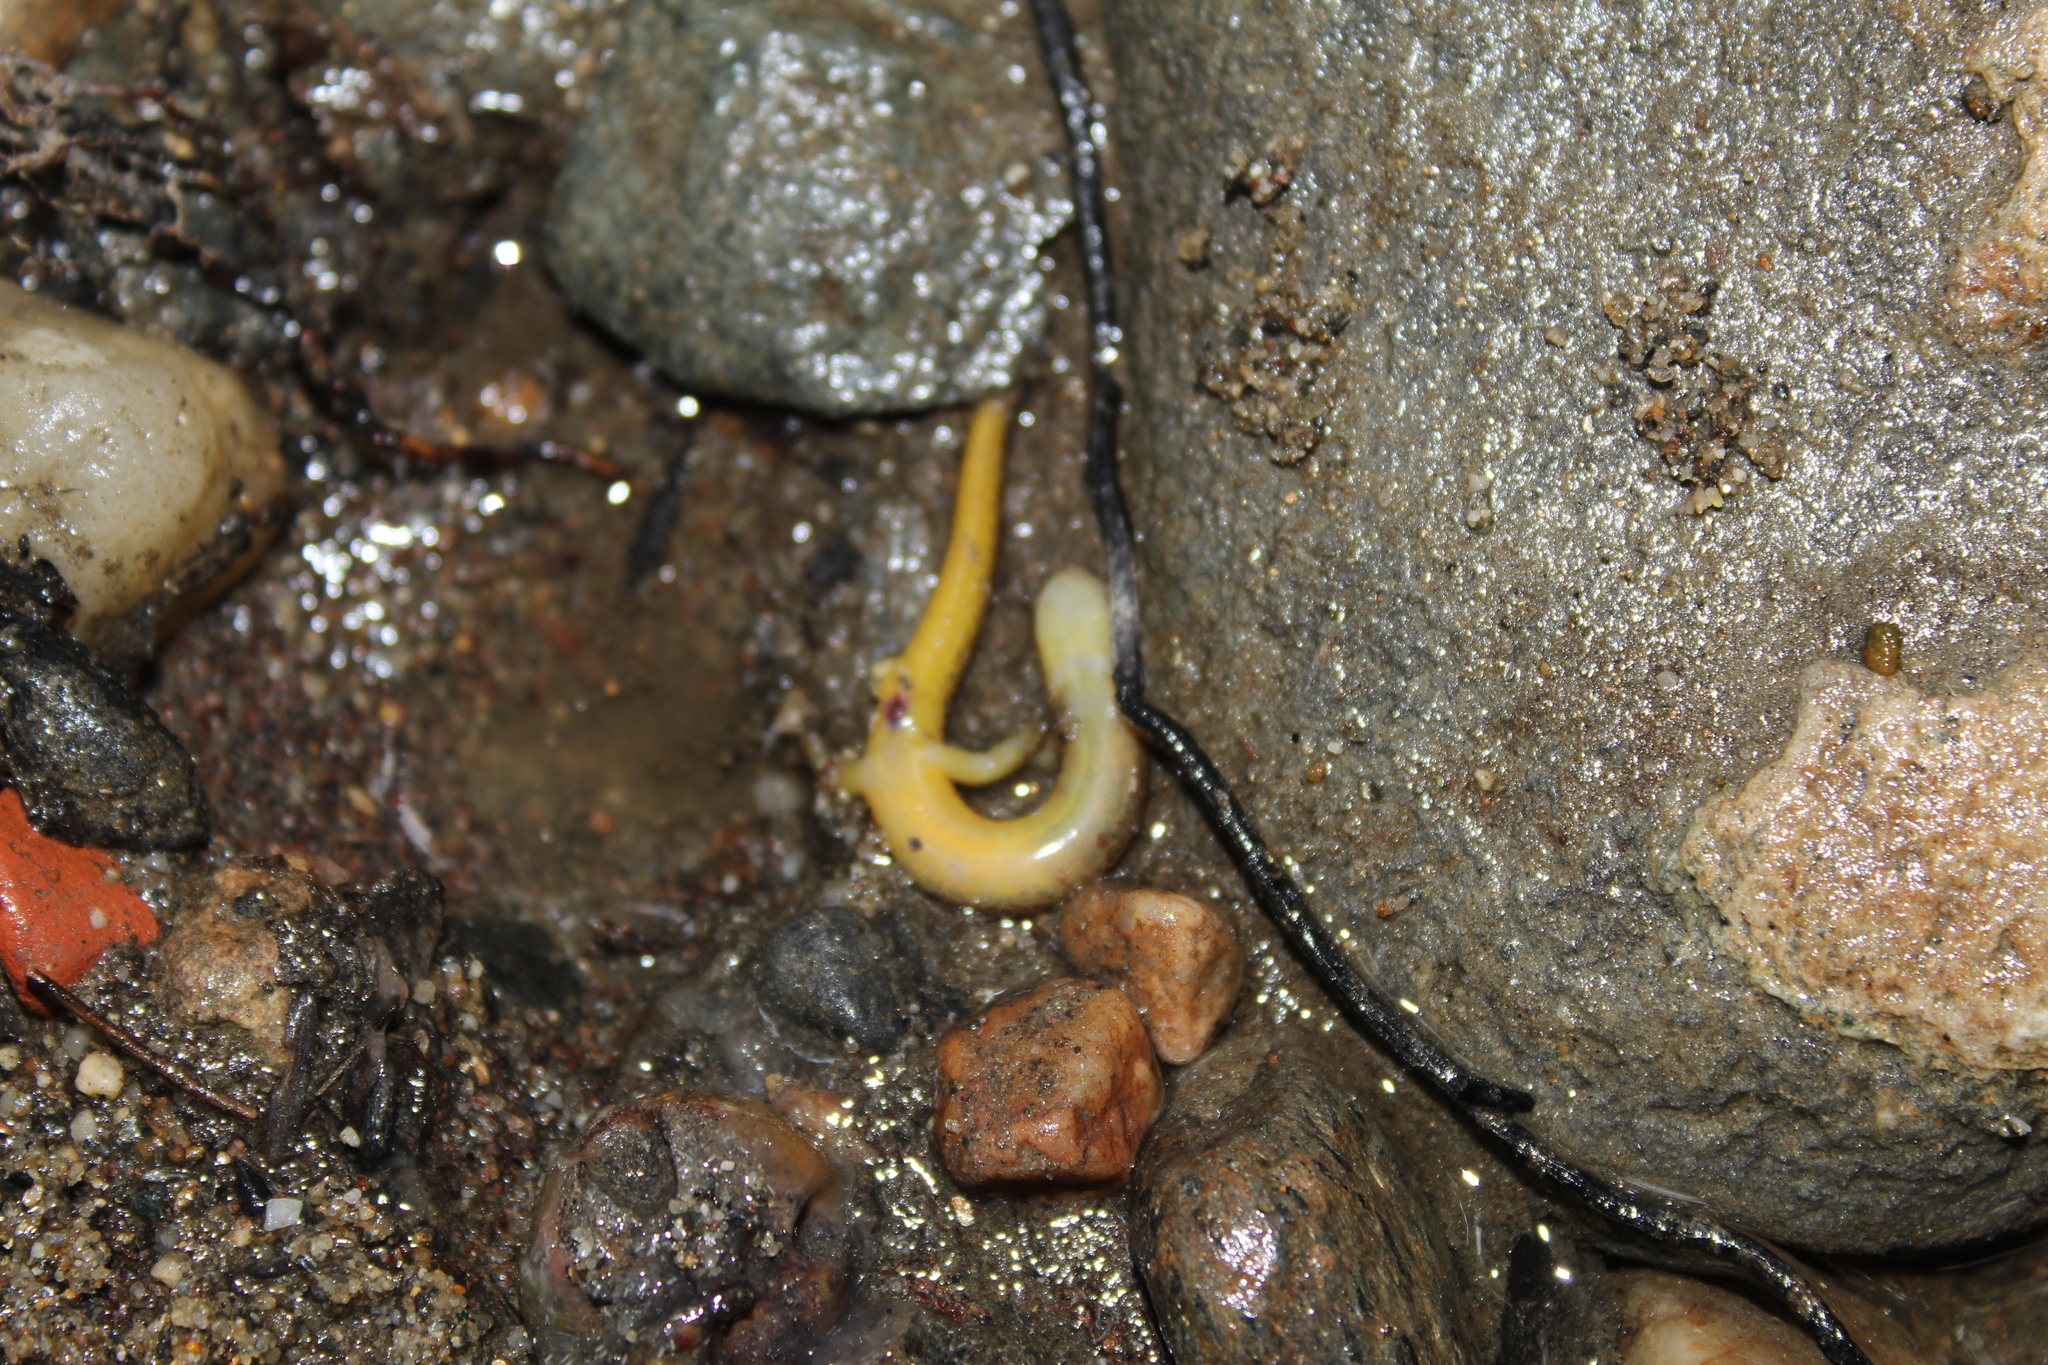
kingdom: Animalia
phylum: Chordata
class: Amphibia
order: Caudata
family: Plethodontidae
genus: Eurycea
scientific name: Eurycea bislineata
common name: Northern two-lined salamander
